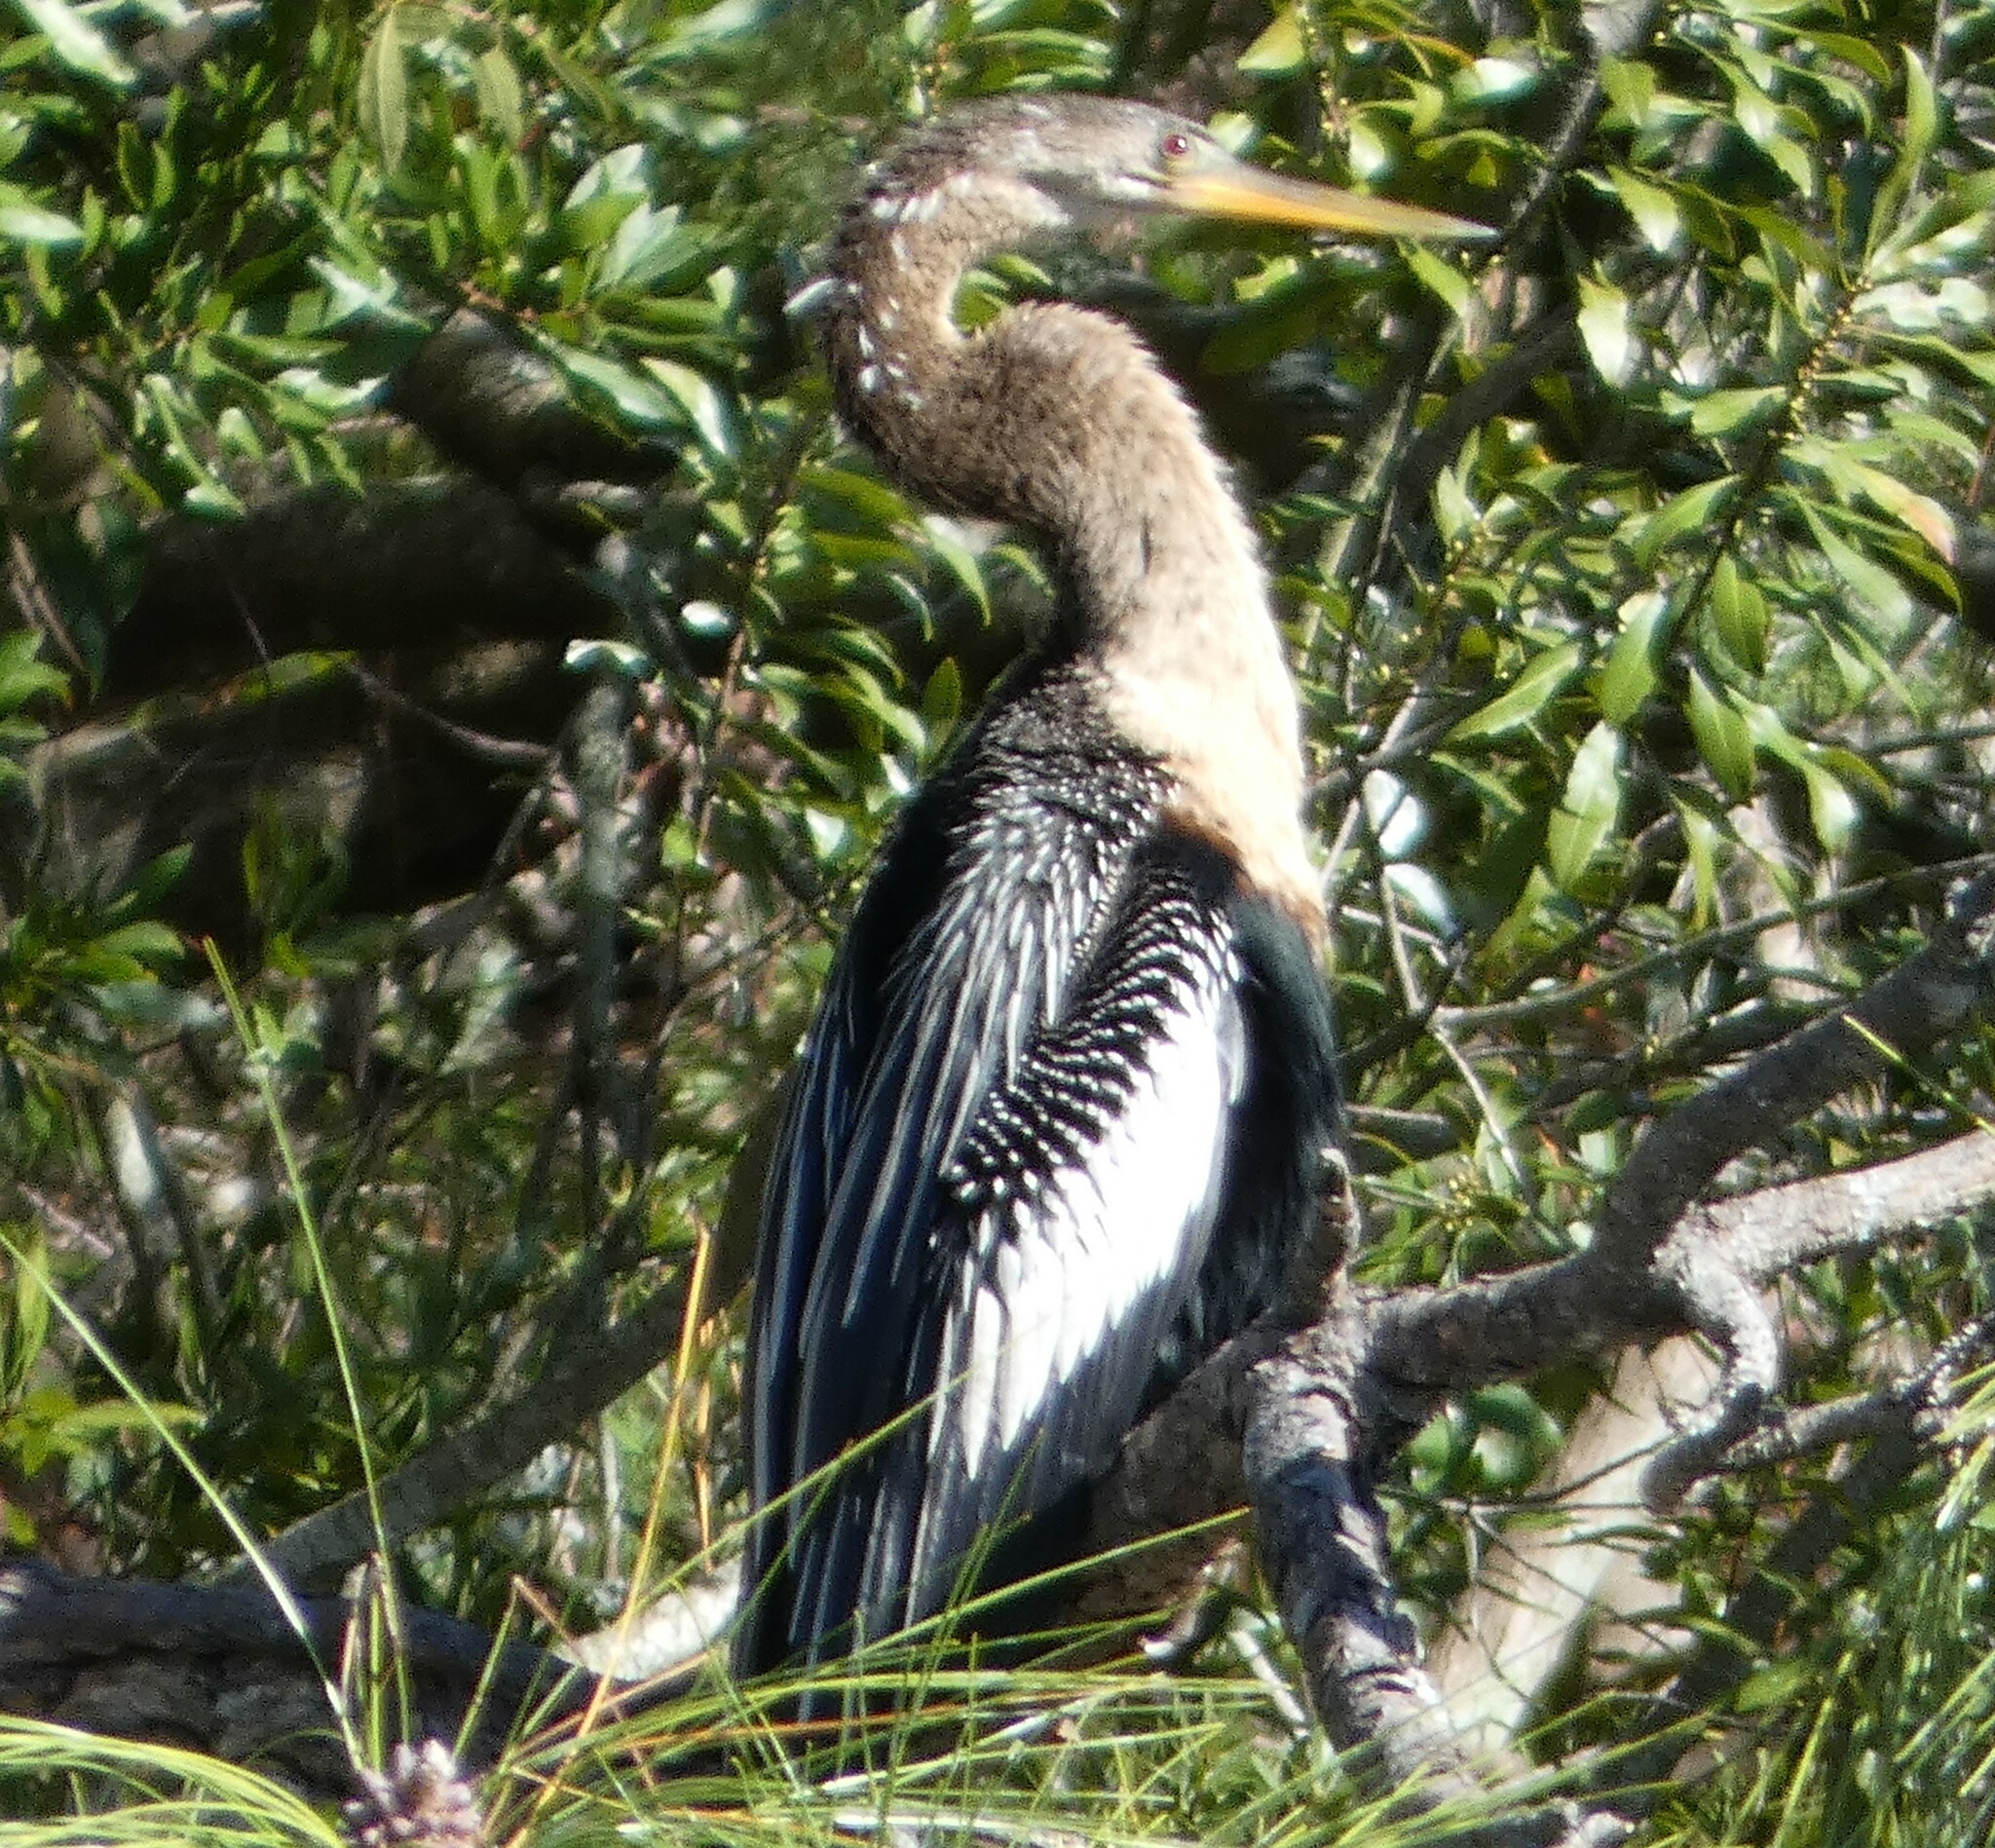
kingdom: Animalia
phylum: Chordata
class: Aves
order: Suliformes
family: Anhingidae
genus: Anhinga
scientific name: Anhinga anhinga
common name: Anhinga
